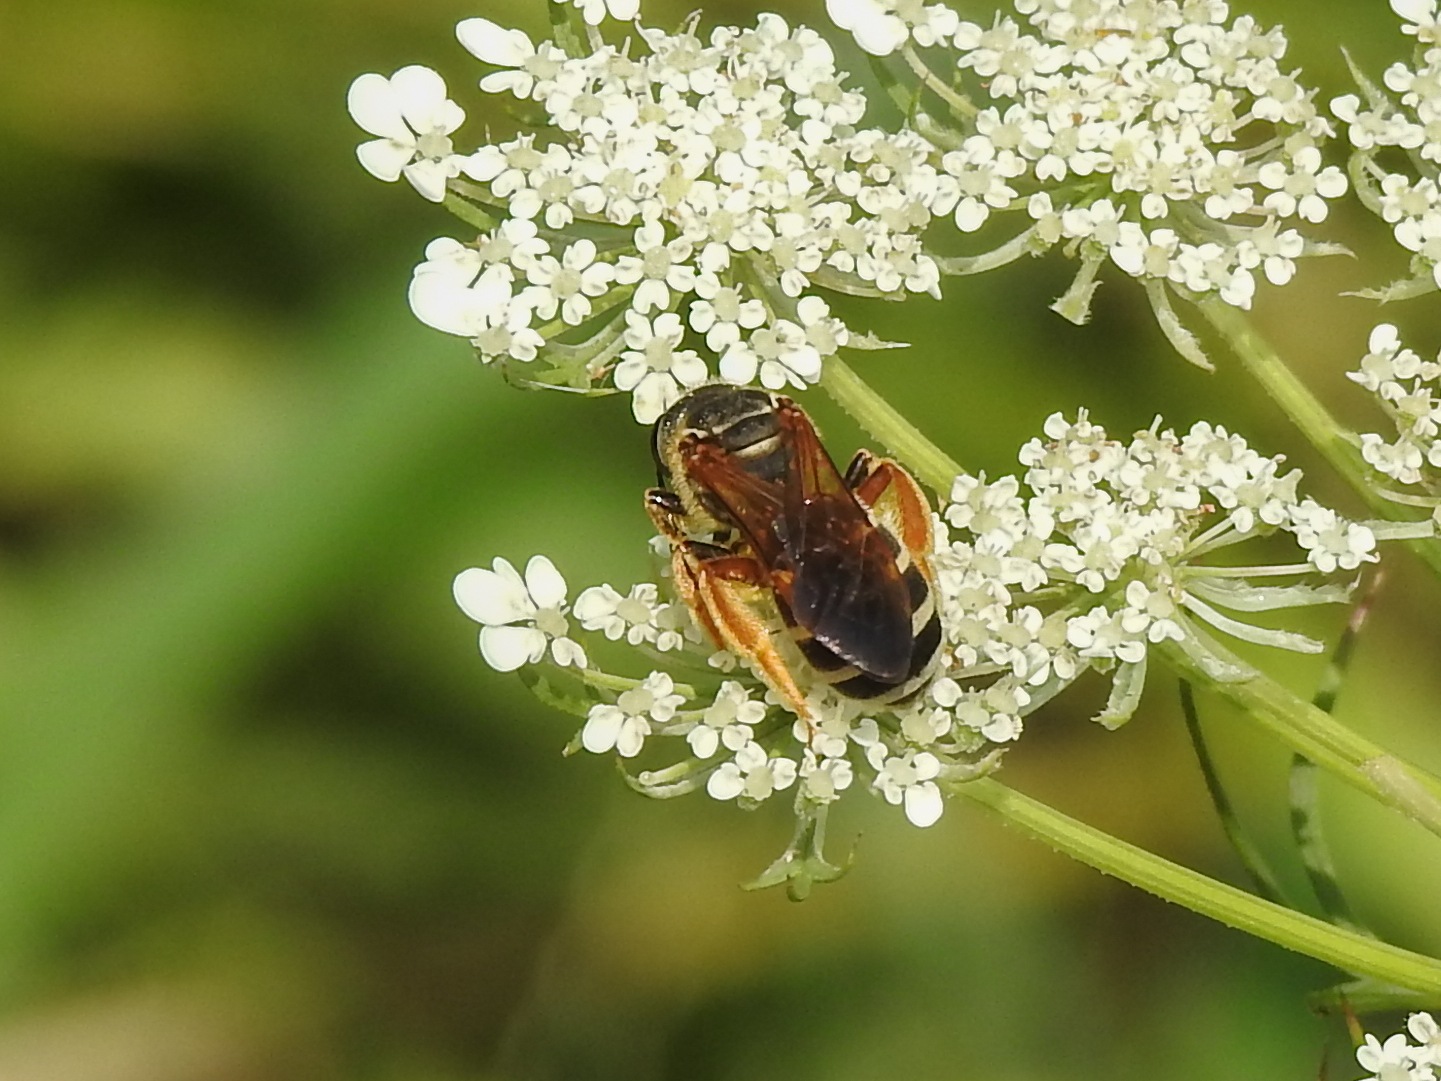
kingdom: Animalia
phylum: Arthropoda
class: Insecta
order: Hymenoptera
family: Halictidae
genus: Halictus
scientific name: Halictus parallelus
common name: Parallel-striped sweat bee
